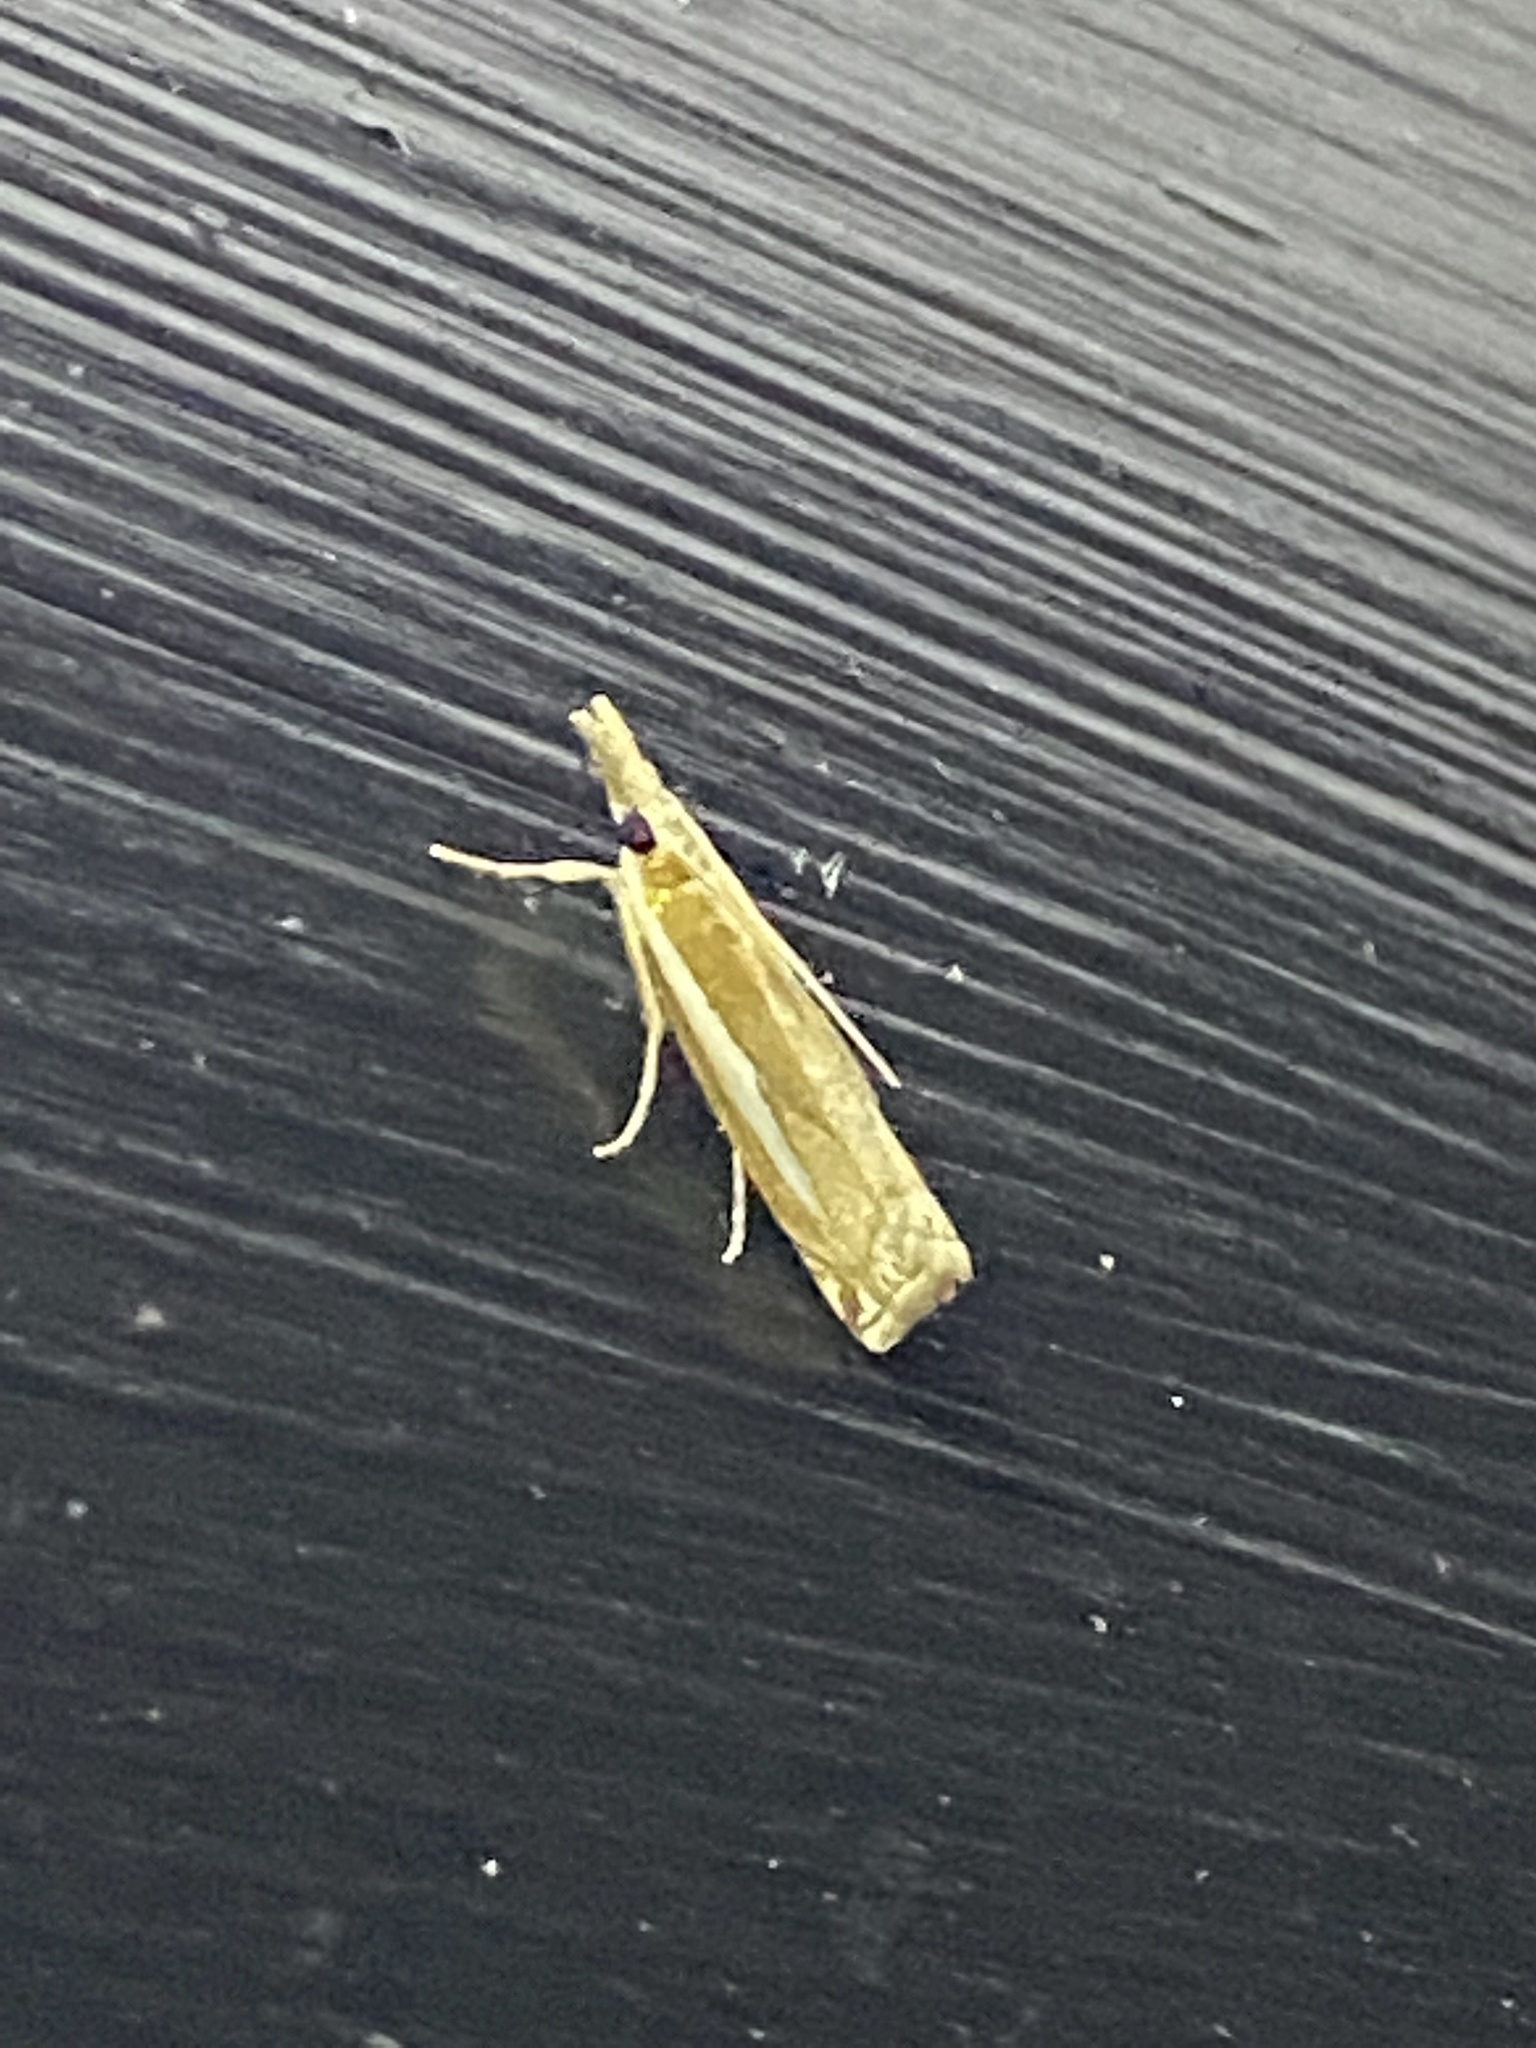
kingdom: Animalia
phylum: Arthropoda
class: Insecta
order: Lepidoptera
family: Crambidae
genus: Crambus
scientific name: Crambus praefectellus
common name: Common grass-veneer
